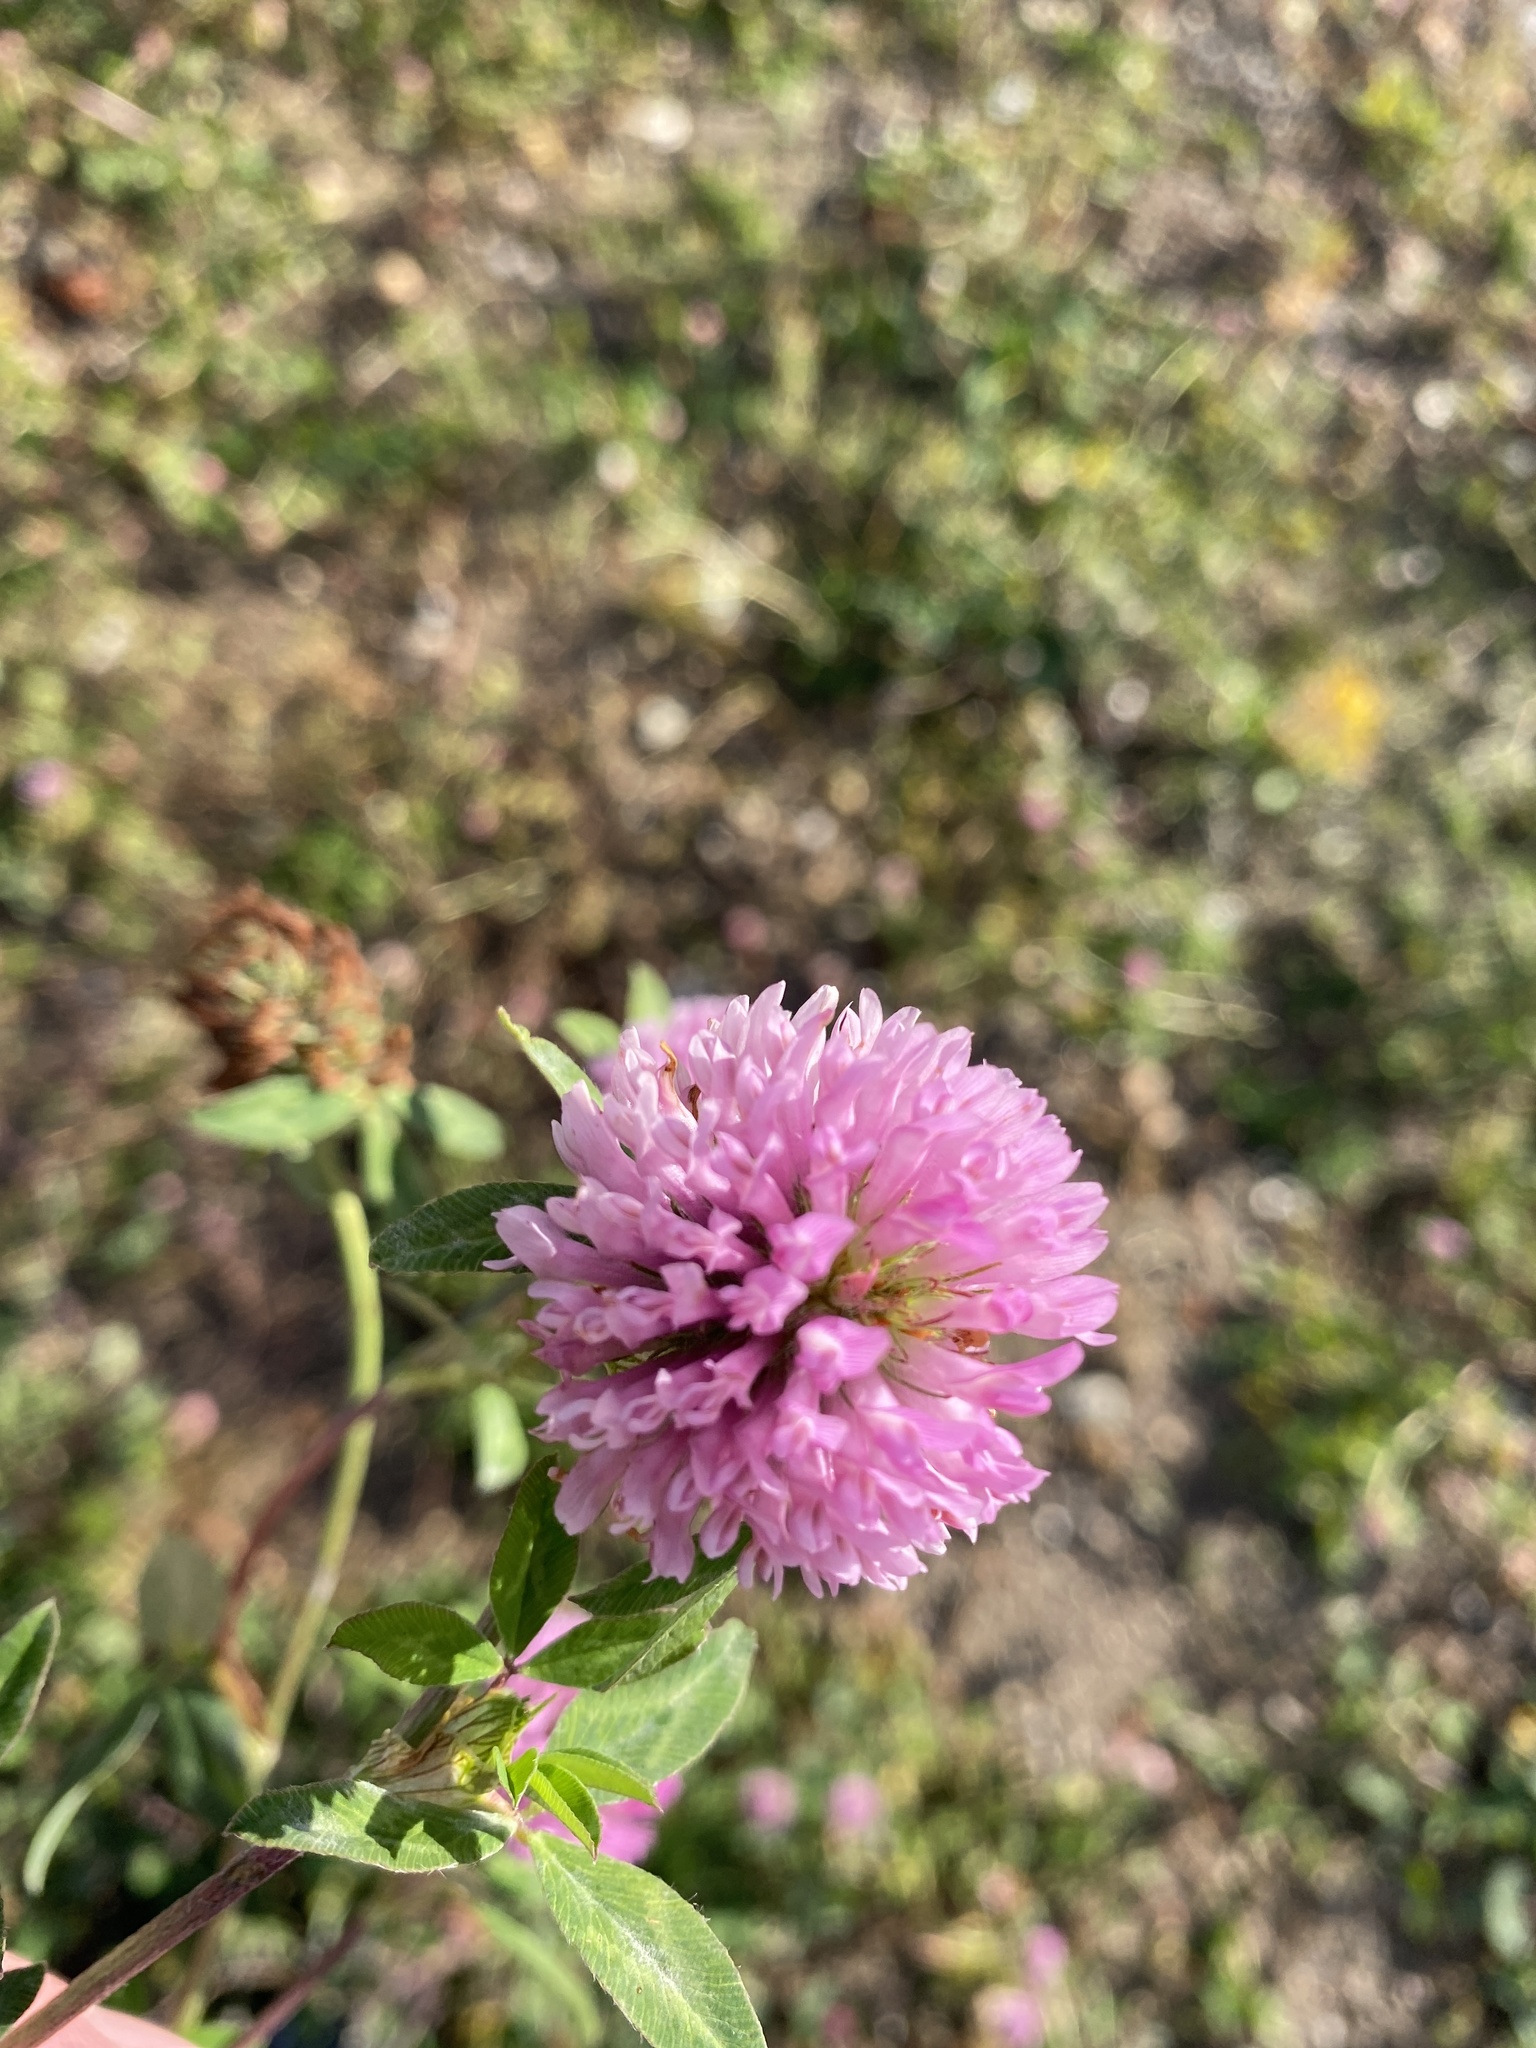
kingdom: Plantae
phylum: Tracheophyta
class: Magnoliopsida
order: Fabales
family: Fabaceae
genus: Trifolium
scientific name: Trifolium pratense
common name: Red clover
